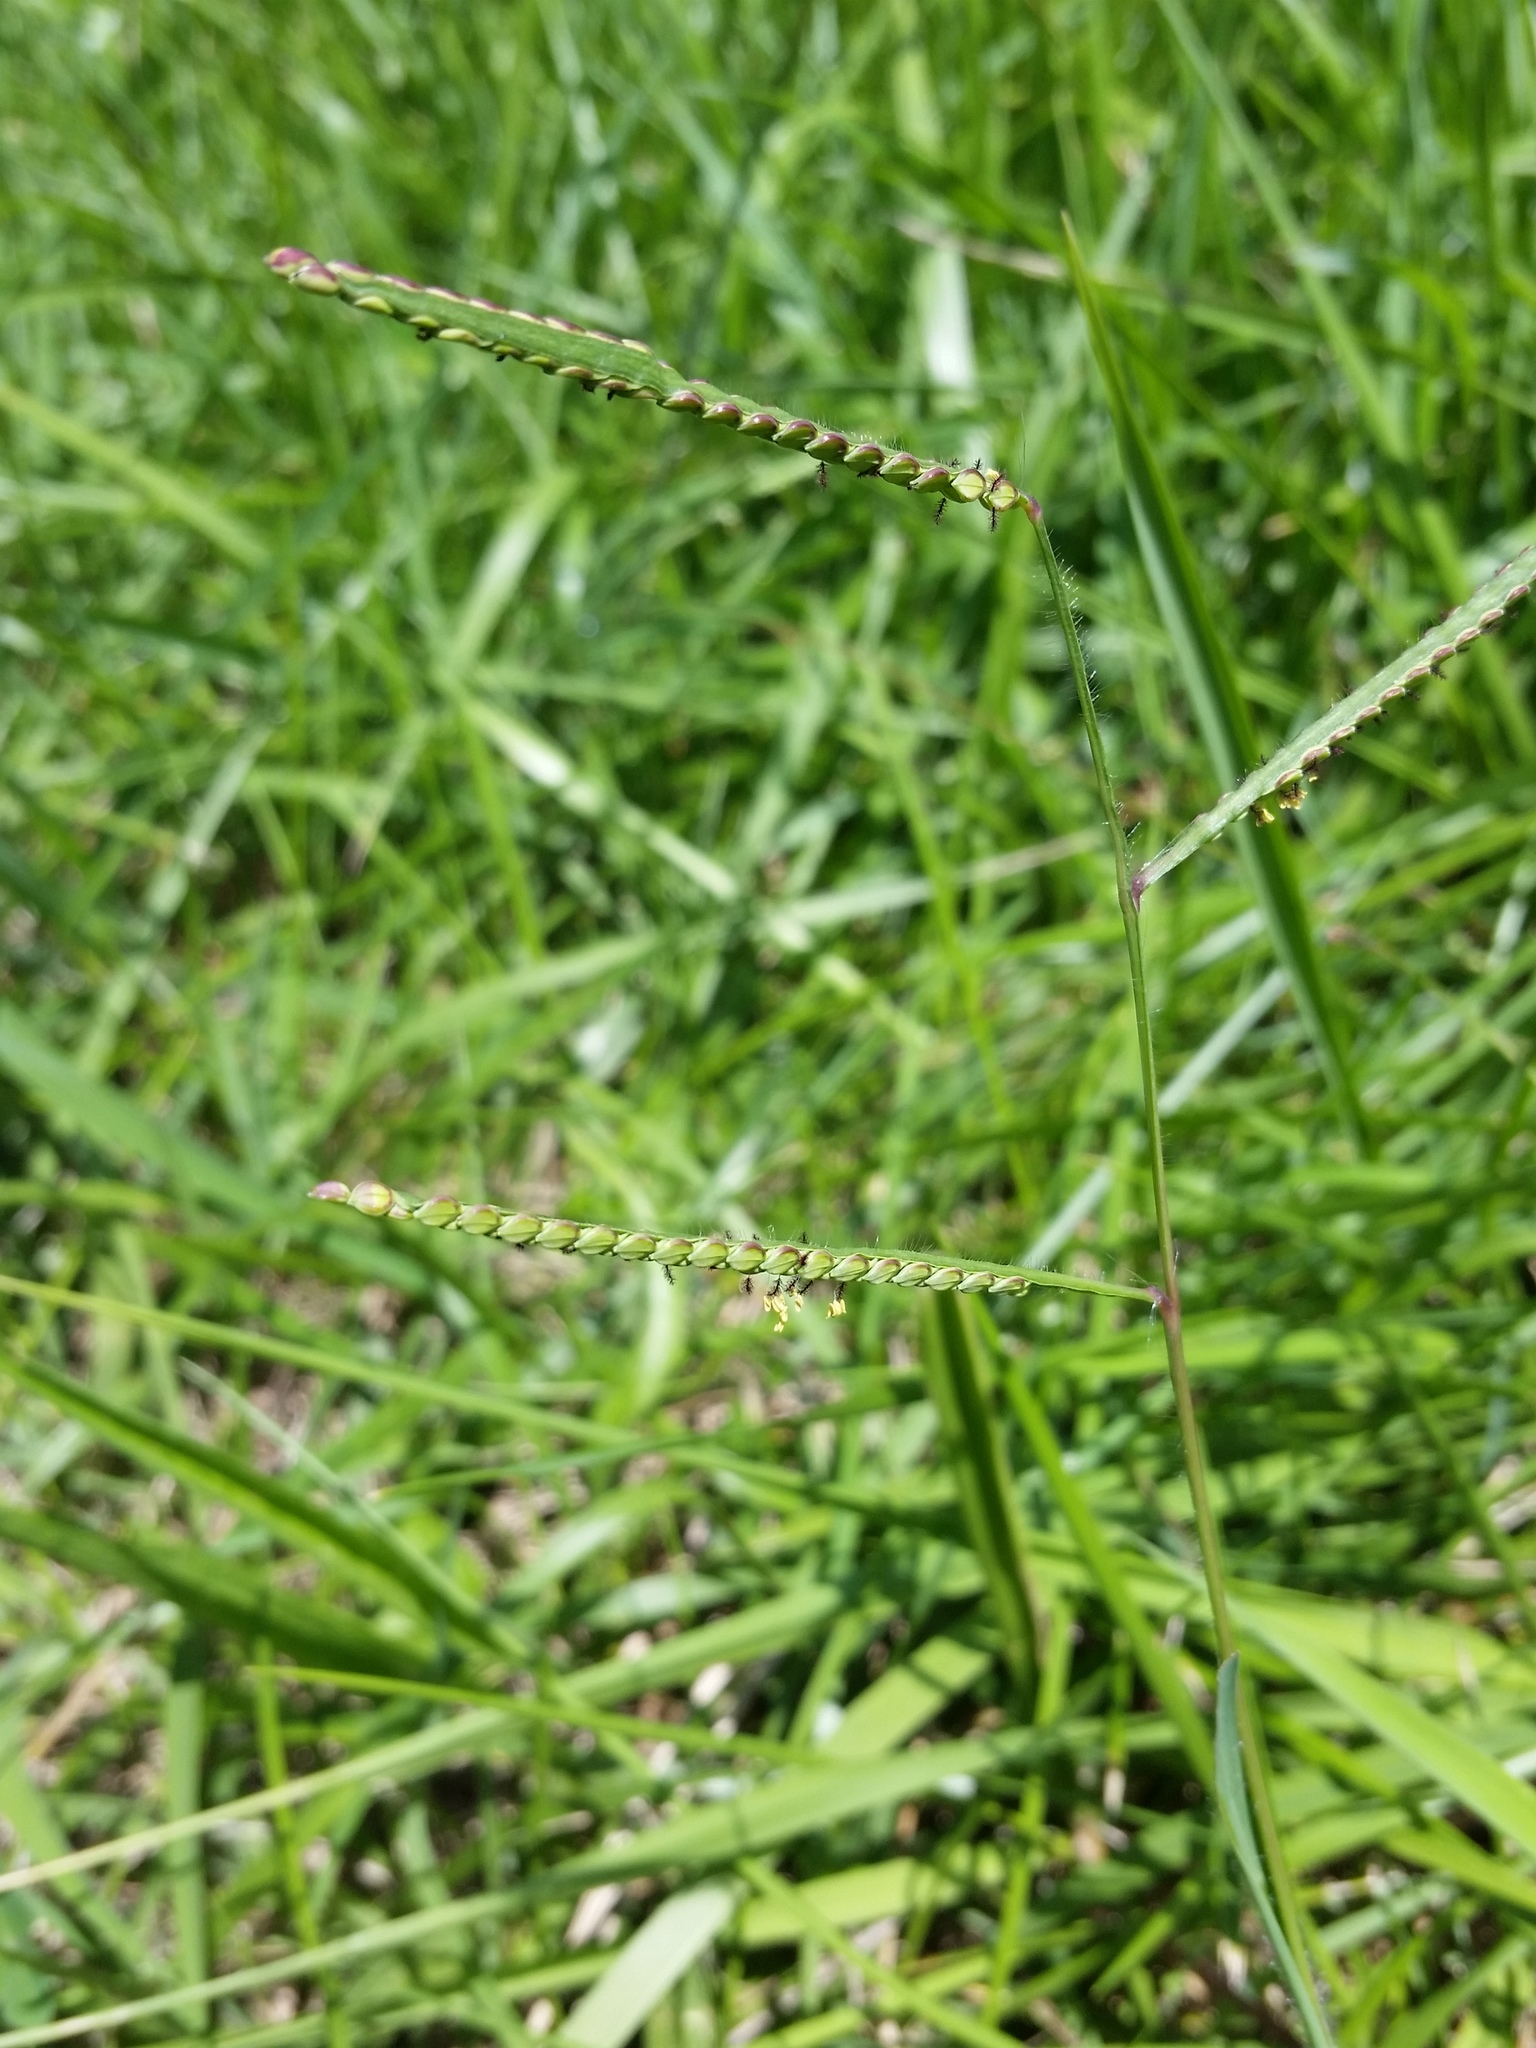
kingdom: Plantae
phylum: Tracheophyta
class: Liliopsida
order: Poales
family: Poaceae
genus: Paspalum
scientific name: Paspalum laeve
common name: Field paspalum
